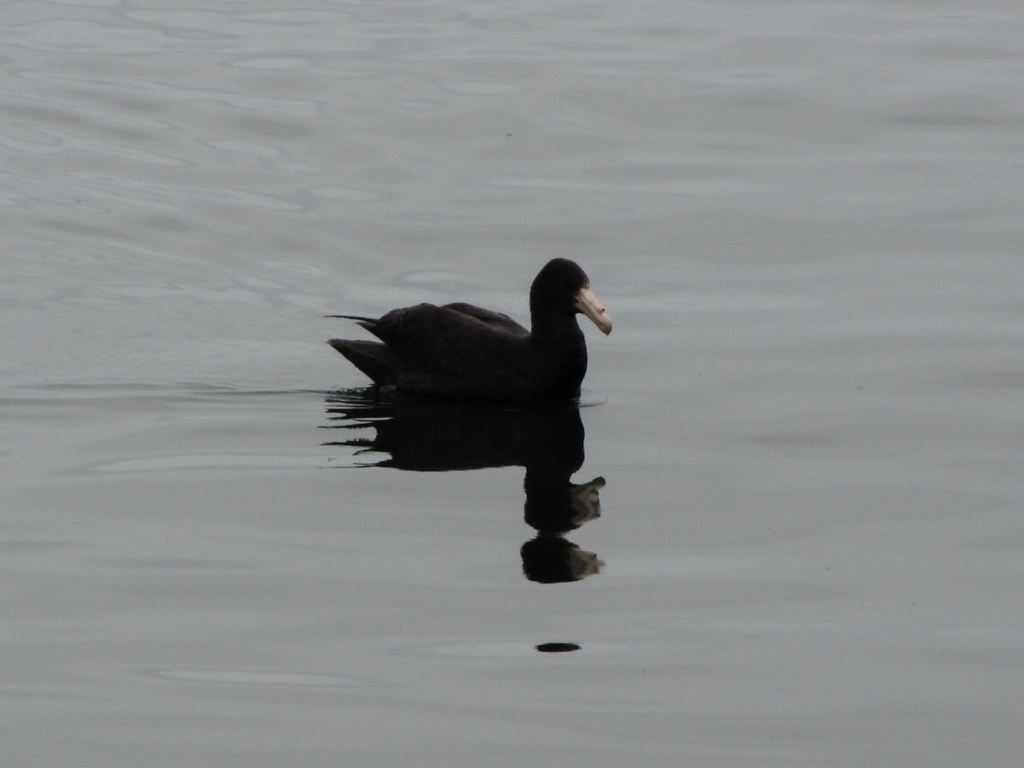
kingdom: Animalia
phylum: Chordata
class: Aves
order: Procellariiformes
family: Procellariidae
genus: Macronectes
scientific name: Macronectes giganteus
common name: Southern giant petrel
